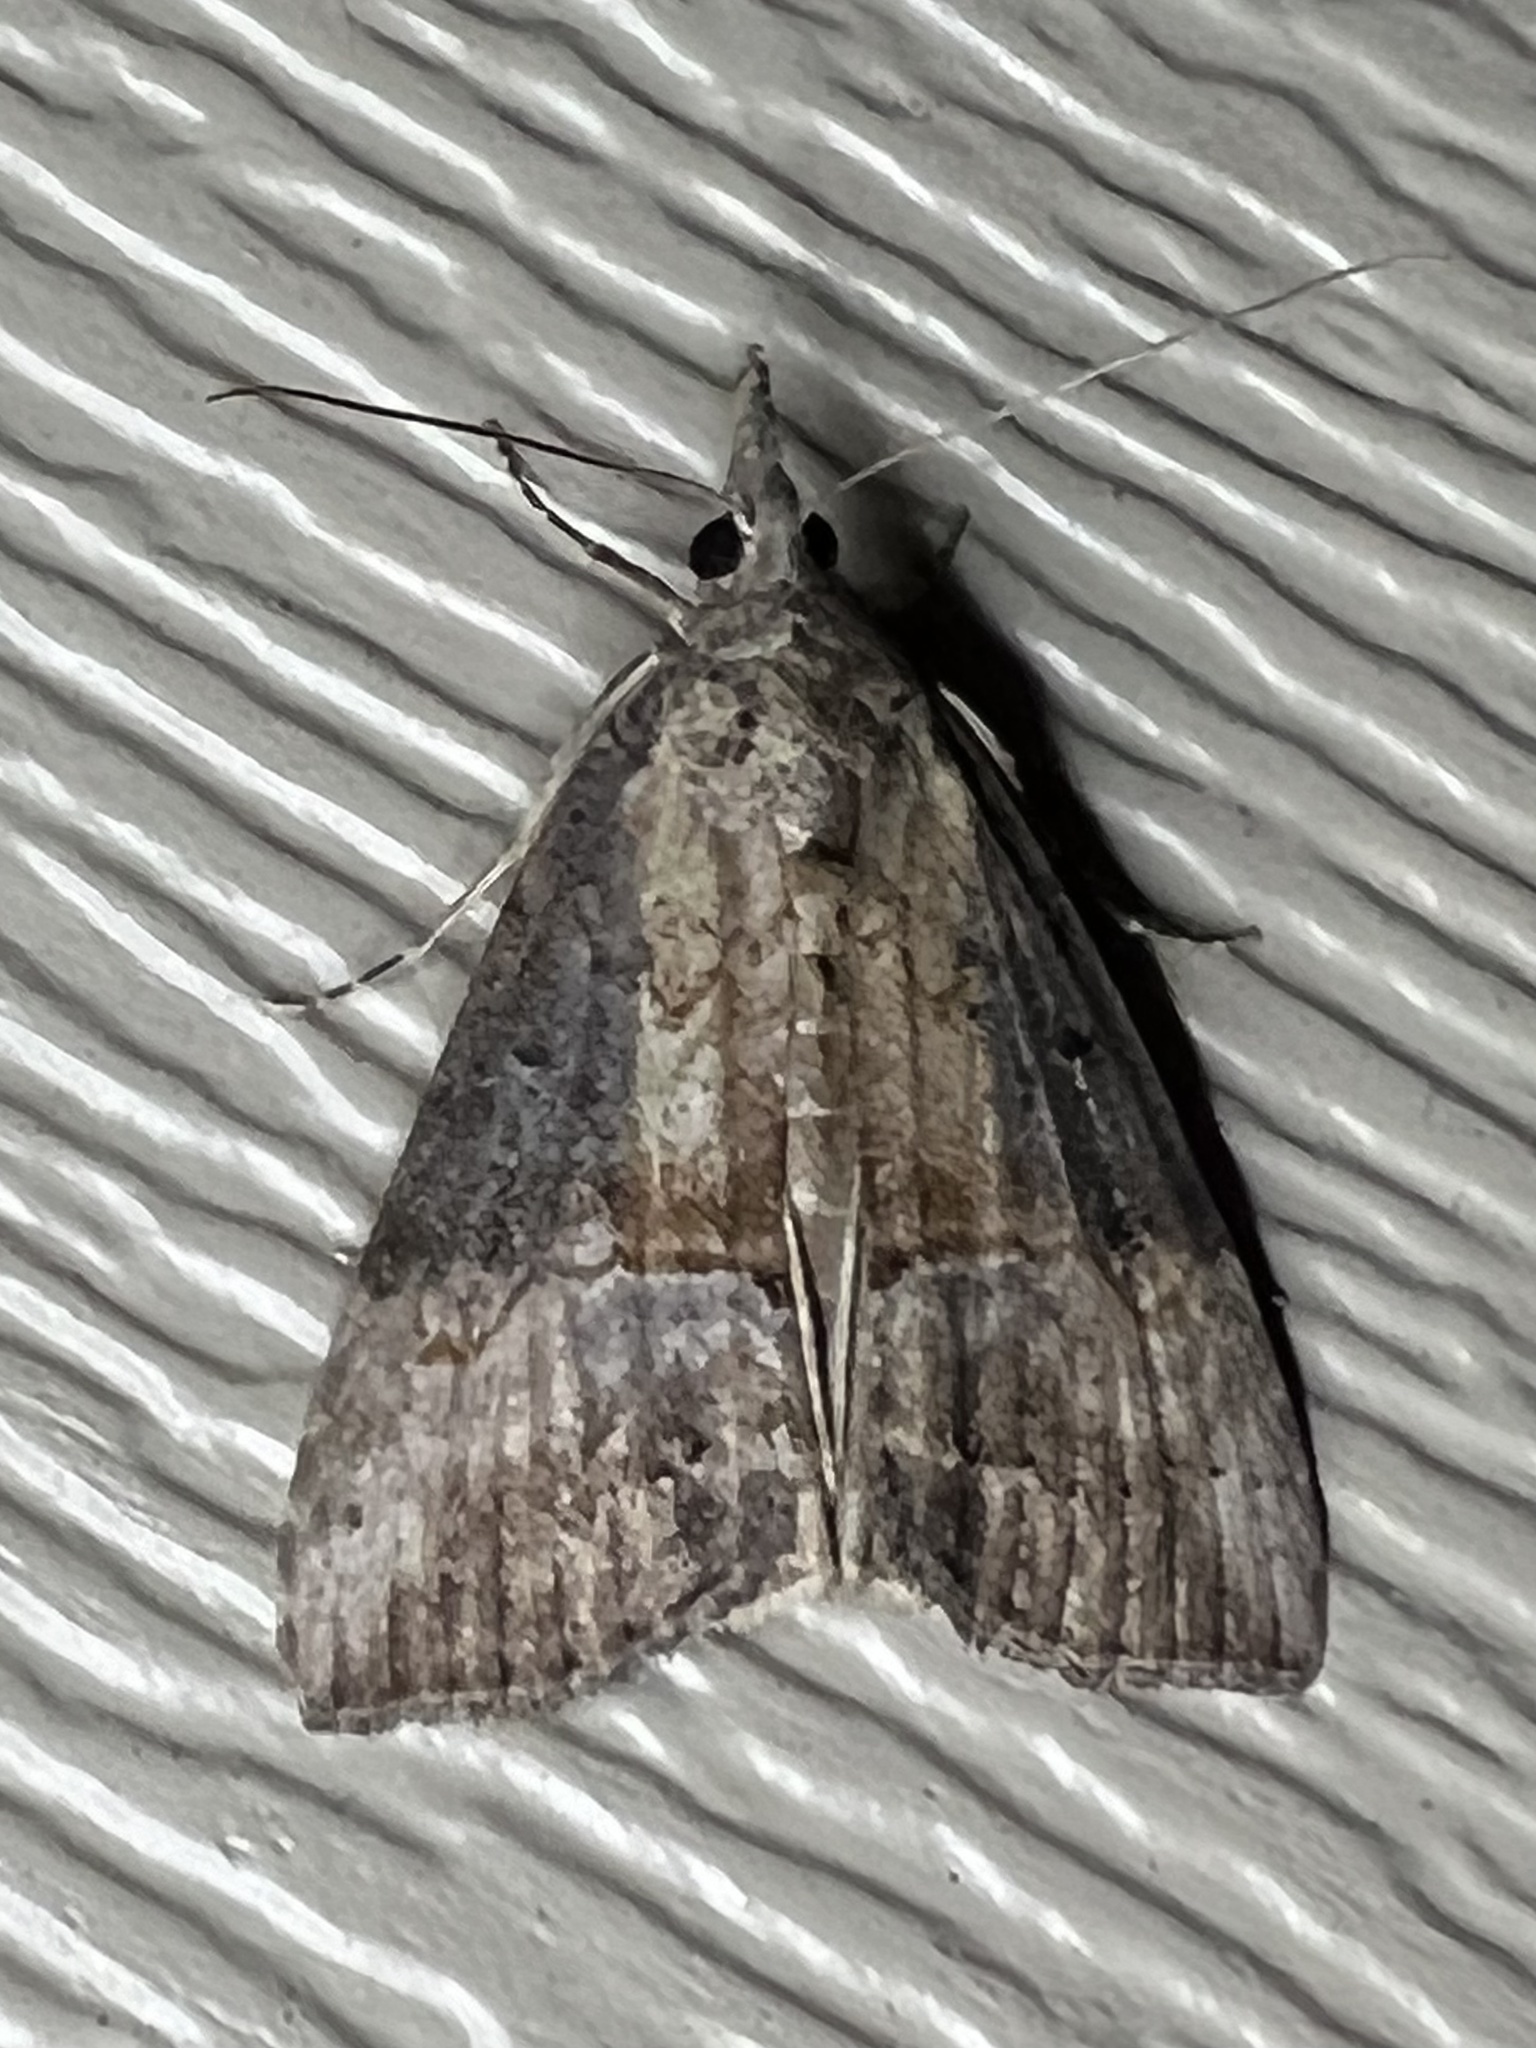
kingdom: Animalia
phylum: Arthropoda
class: Insecta
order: Lepidoptera
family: Erebidae
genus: Hypena
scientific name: Hypena scabra
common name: Green cloverworm
